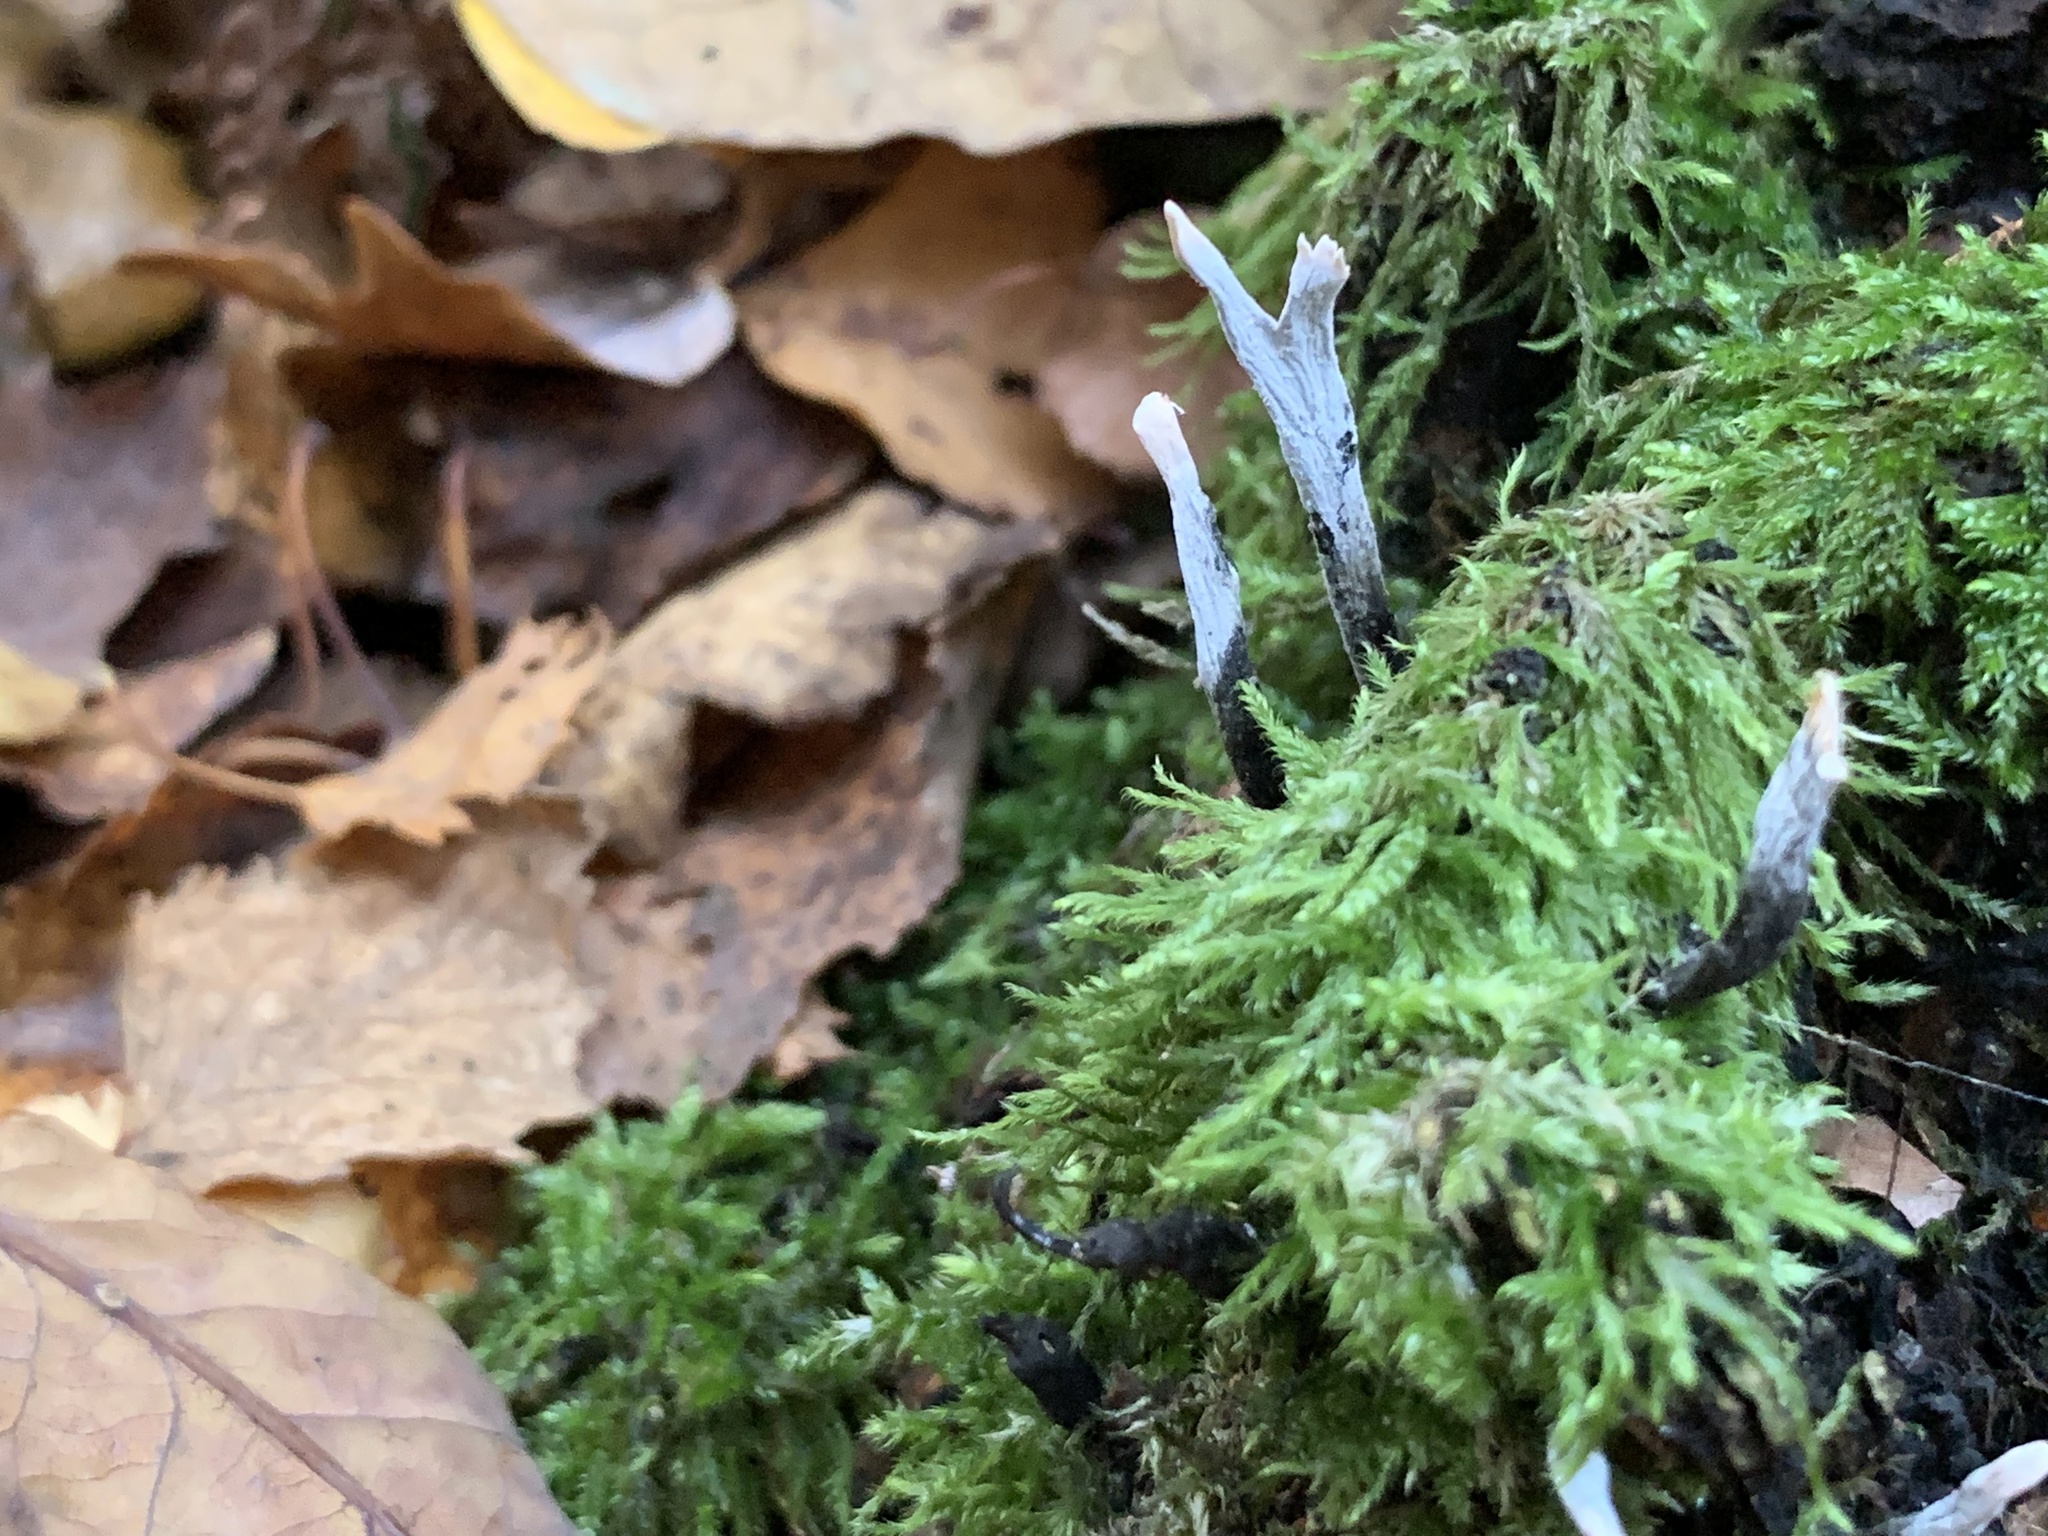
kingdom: Fungi
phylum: Ascomycota
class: Sordariomycetes
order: Xylariales
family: Xylariaceae
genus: Xylaria
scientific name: Xylaria hypoxylon
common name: Candle-snuff fungus
